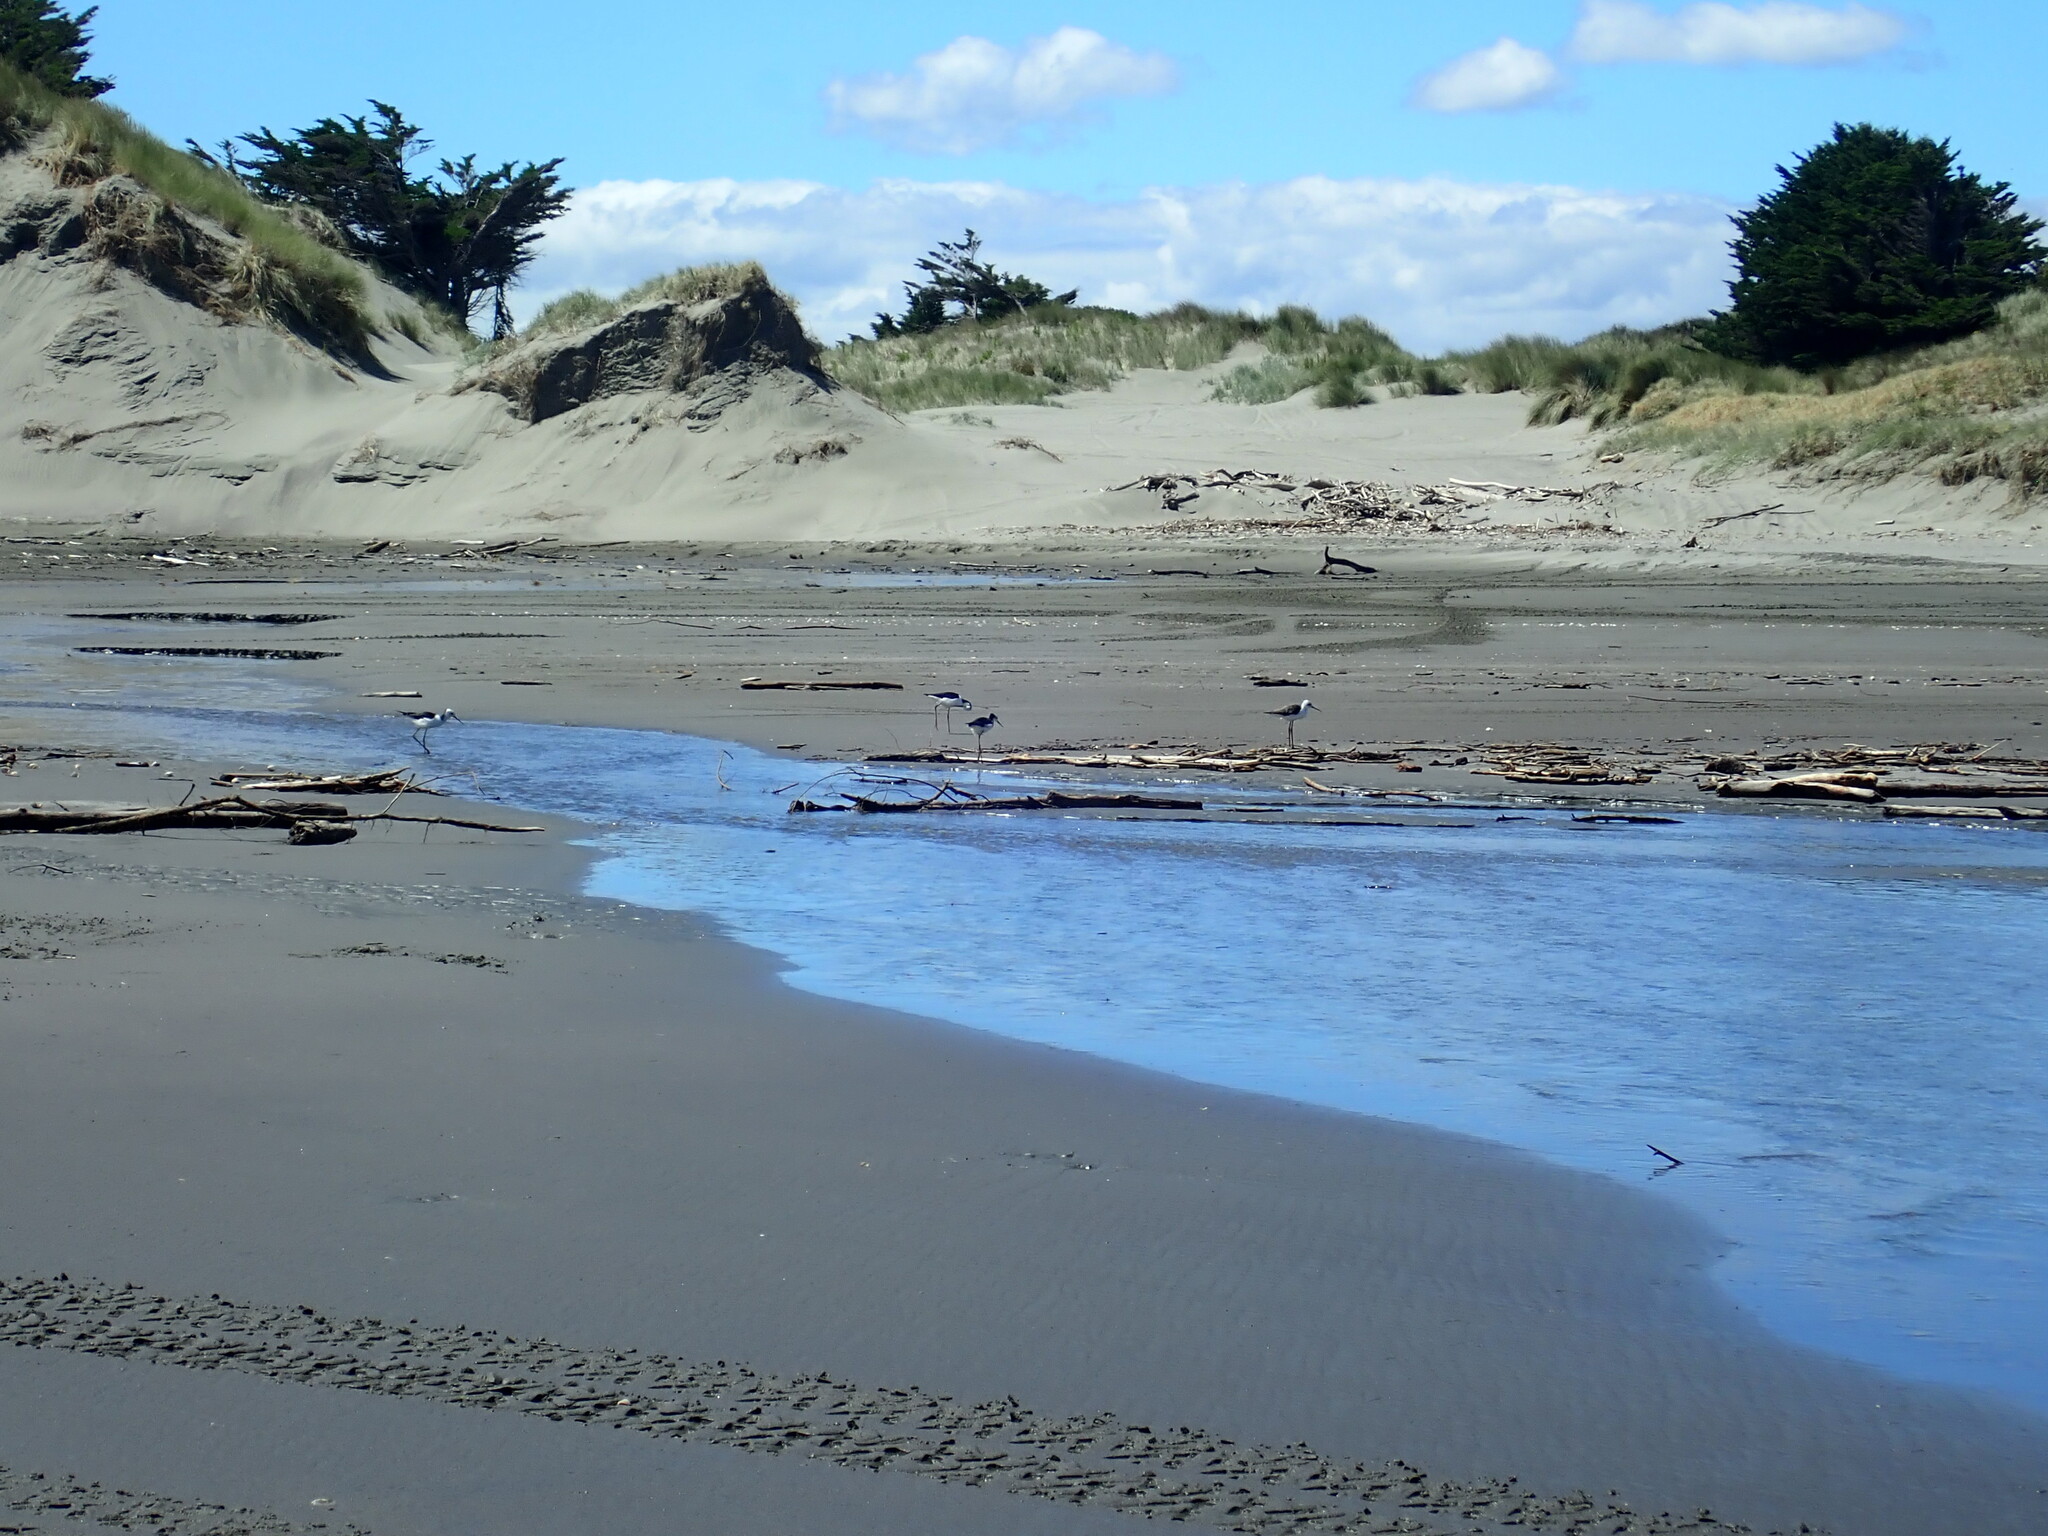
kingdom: Animalia
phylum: Chordata
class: Aves
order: Charadriiformes
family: Recurvirostridae
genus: Himantopus
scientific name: Himantopus leucocephalus
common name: White-headed stilt
